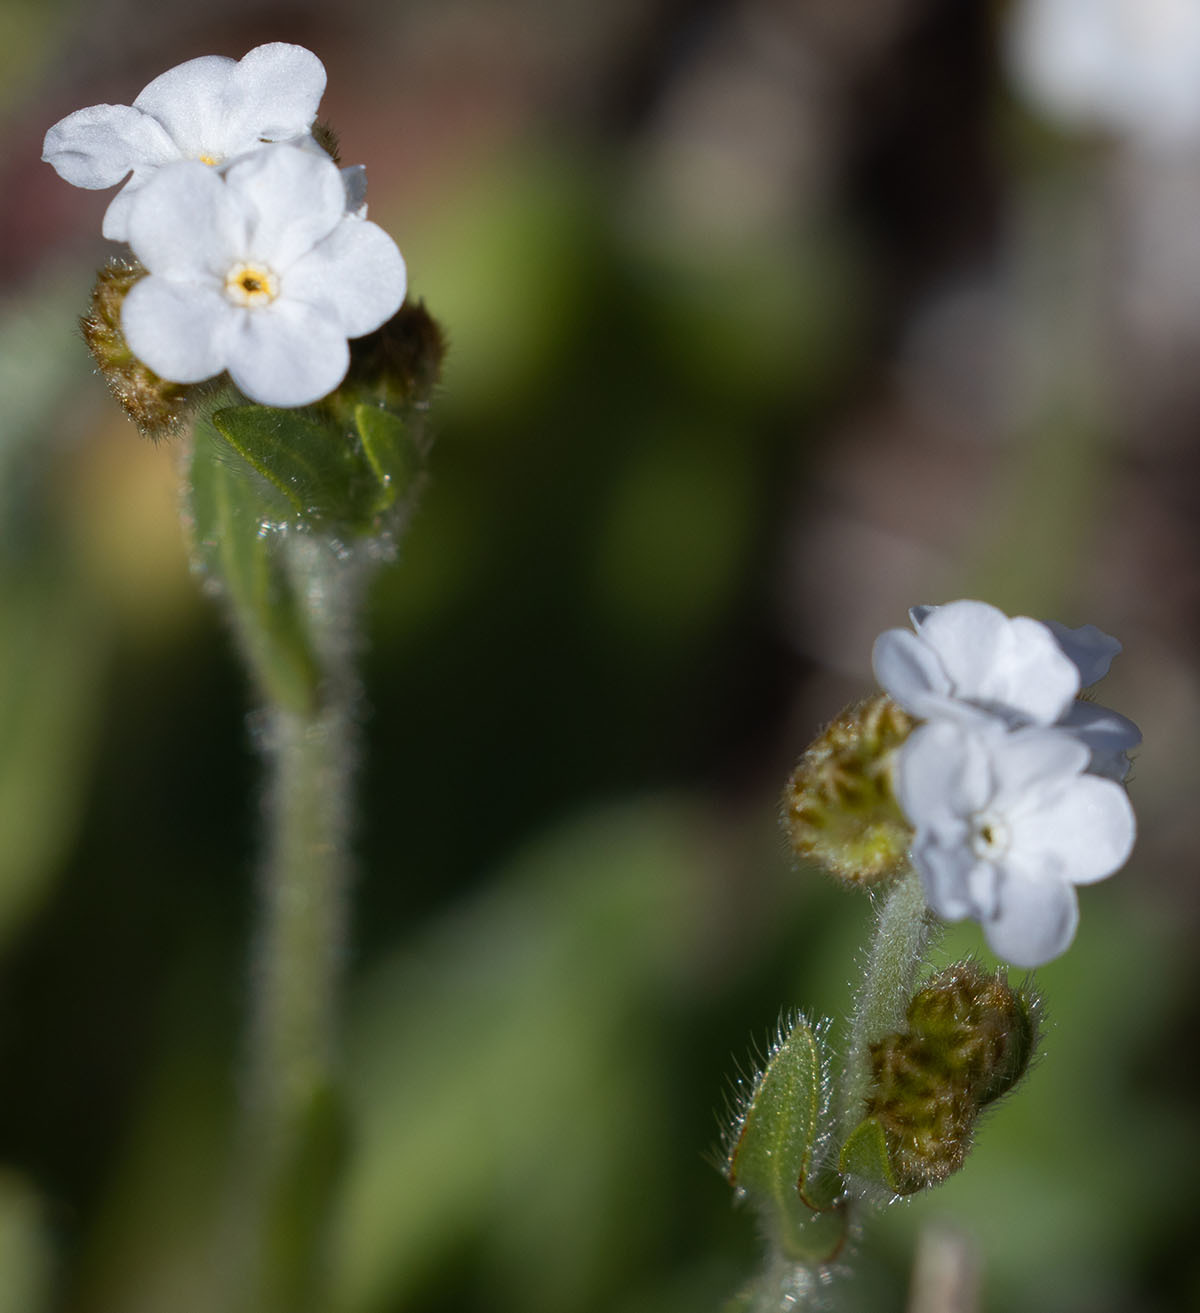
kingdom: Plantae
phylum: Tracheophyta
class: Magnoliopsida
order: Boraginales
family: Boraginaceae
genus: Plagiobothrys
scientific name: Plagiobothrys nothofulvus
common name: Popcorn-flower
